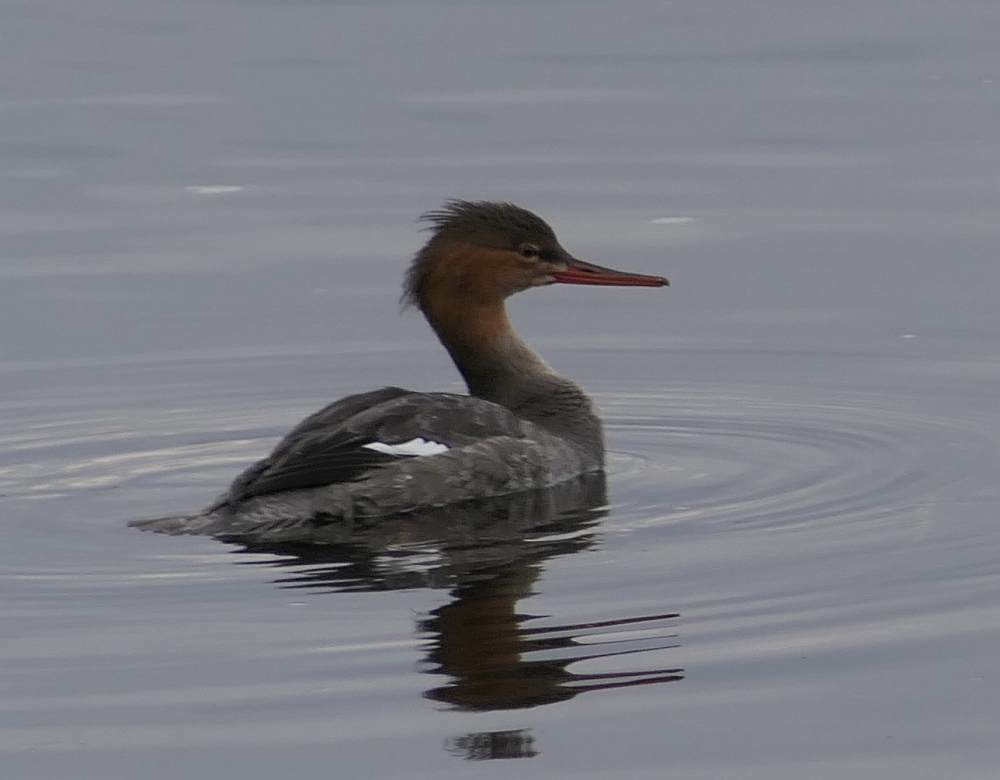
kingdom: Animalia
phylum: Chordata
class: Aves
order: Anseriformes
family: Anatidae
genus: Mergus
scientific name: Mergus serrator
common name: Red-breasted merganser
